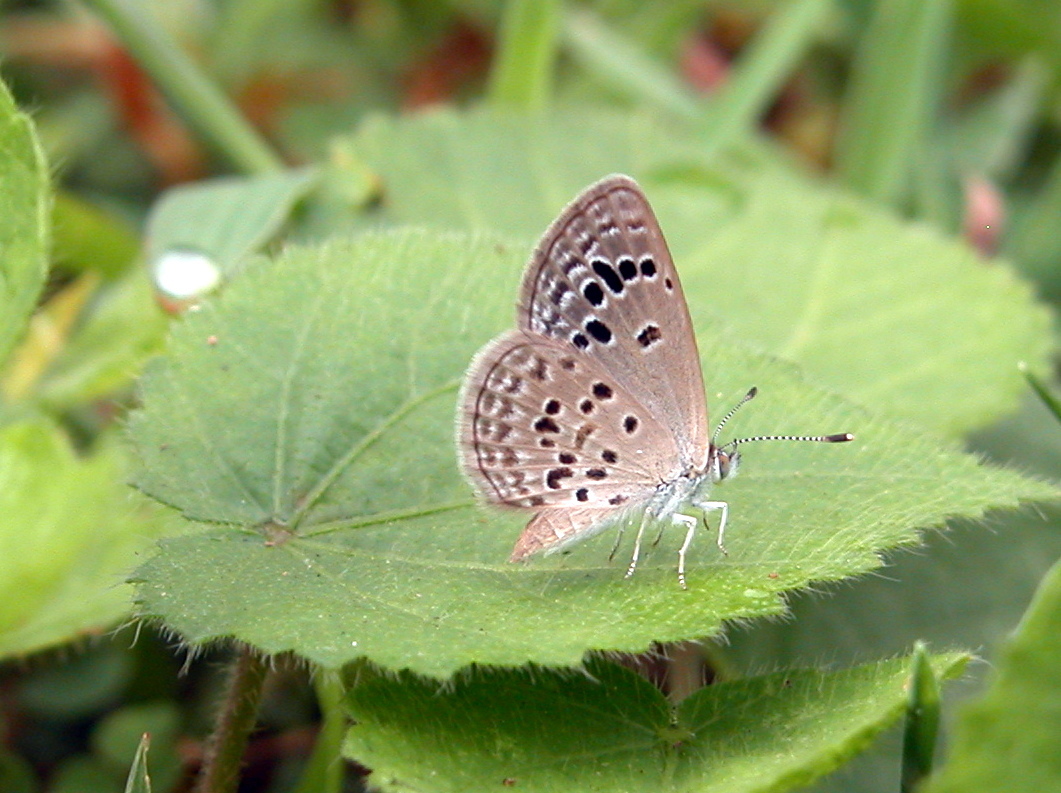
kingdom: Animalia
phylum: Arthropoda
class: Insecta
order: Lepidoptera
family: Lycaenidae
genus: Zizina
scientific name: Zizina otis
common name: Lesser grass blue
